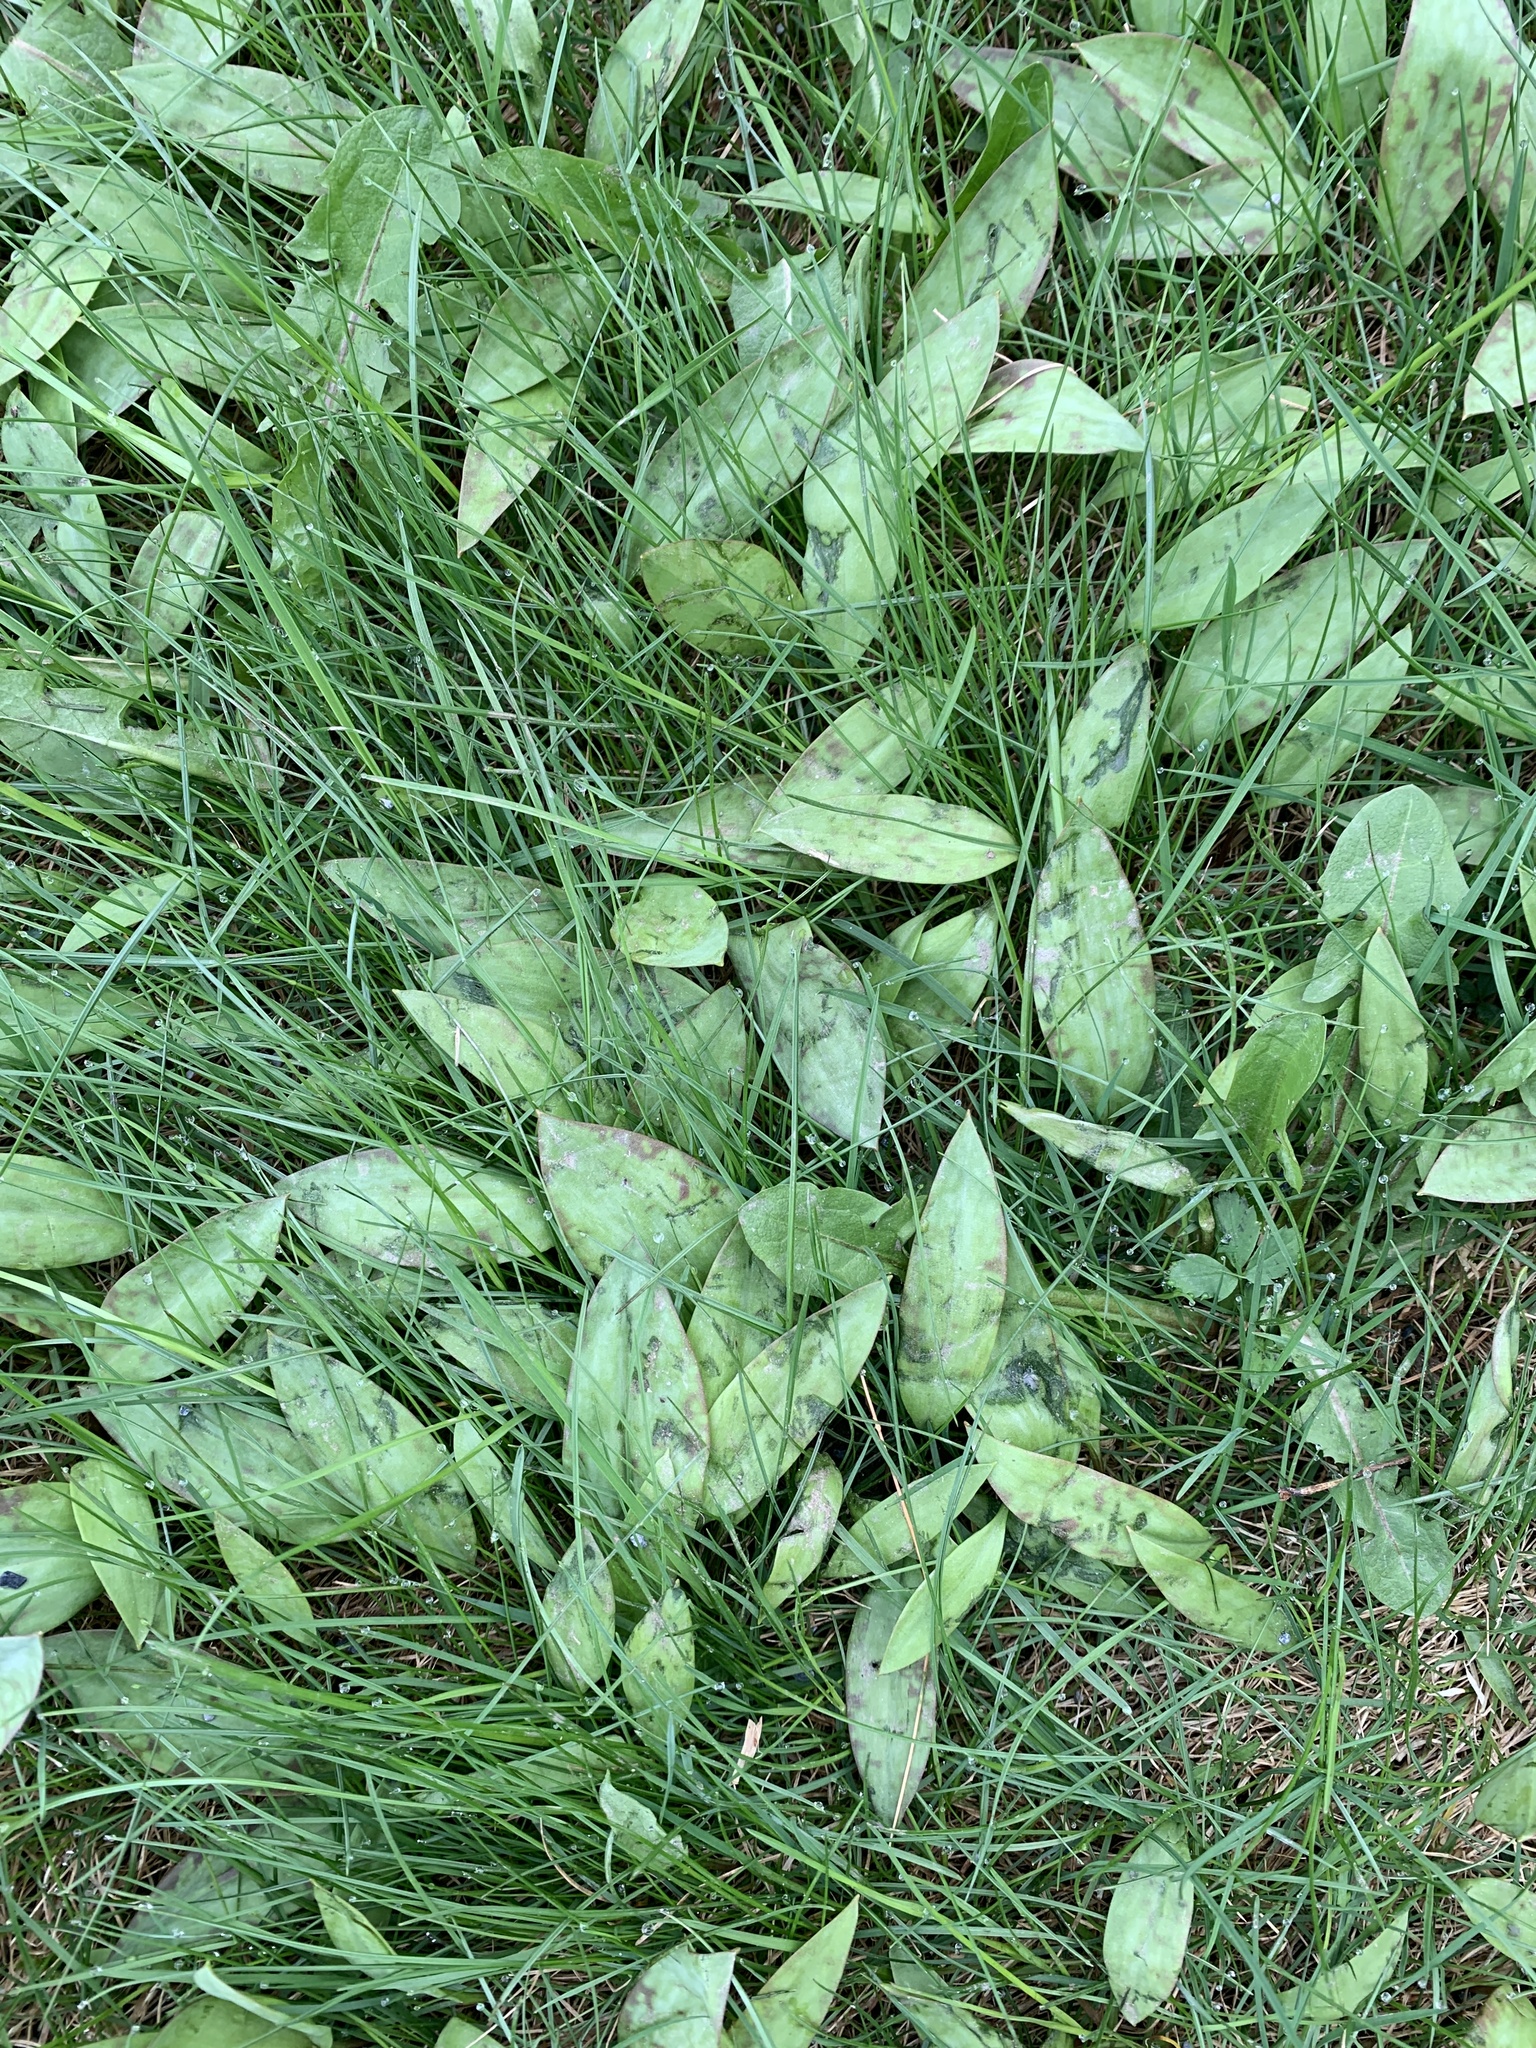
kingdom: Plantae
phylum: Tracheophyta
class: Liliopsida
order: Liliales
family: Liliaceae
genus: Erythronium
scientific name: Erythronium americanum
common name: Yellow adder's-tongue
